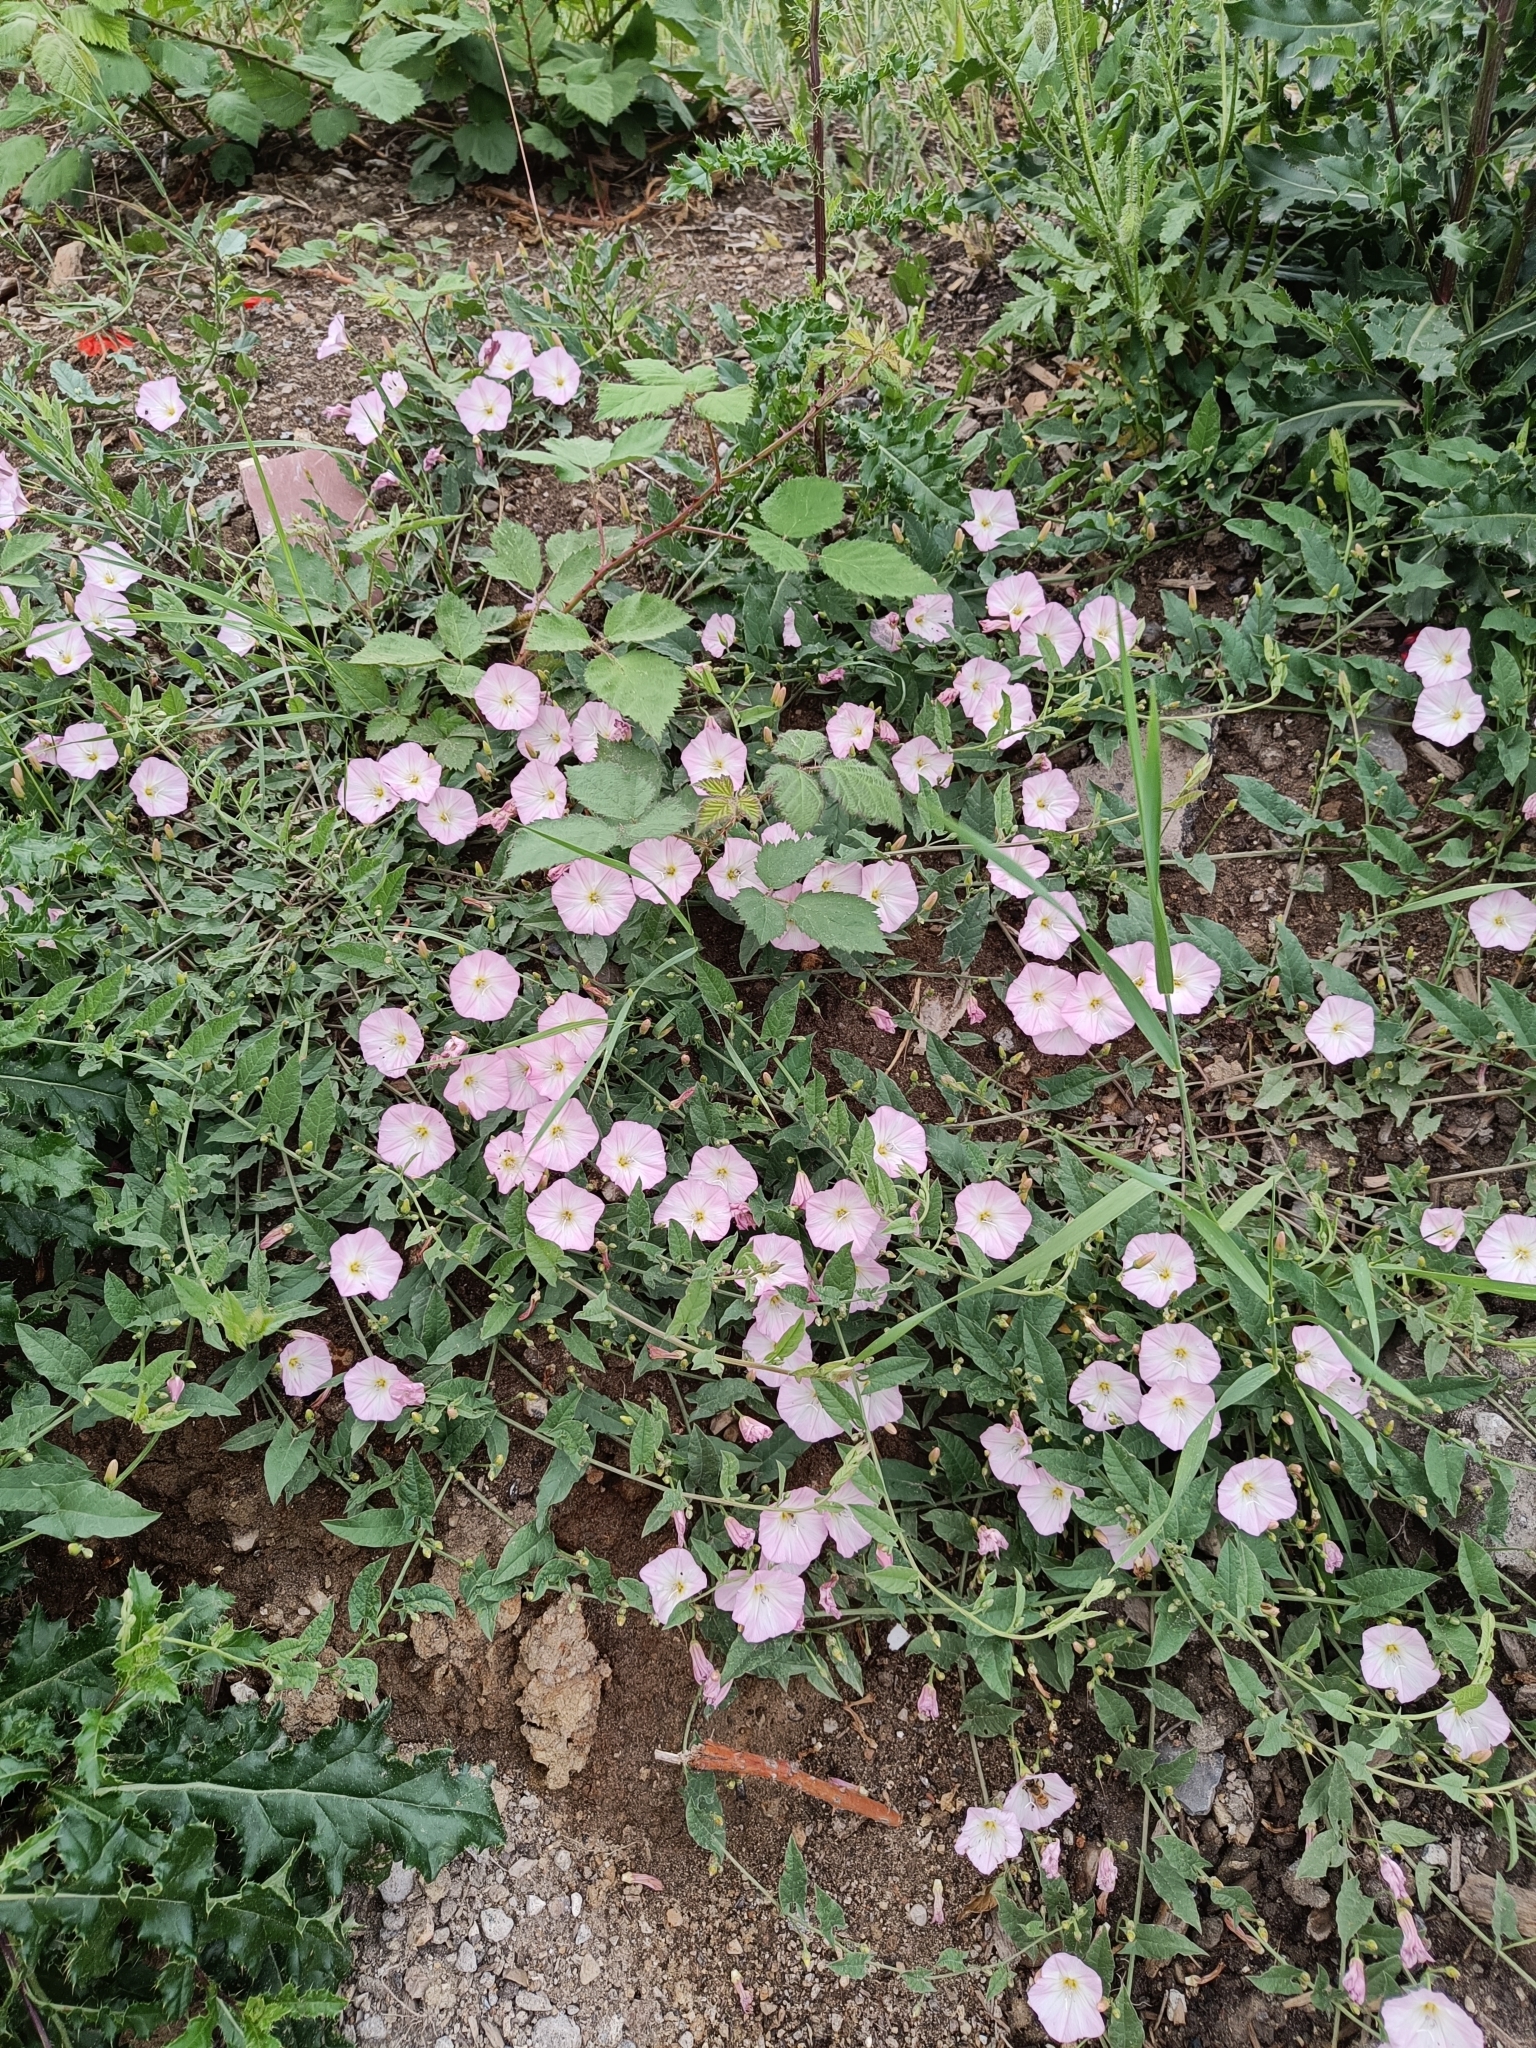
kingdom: Plantae
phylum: Tracheophyta
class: Magnoliopsida
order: Solanales
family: Convolvulaceae
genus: Convolvulus
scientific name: Convolvulus arvensis
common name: Field bindweed
